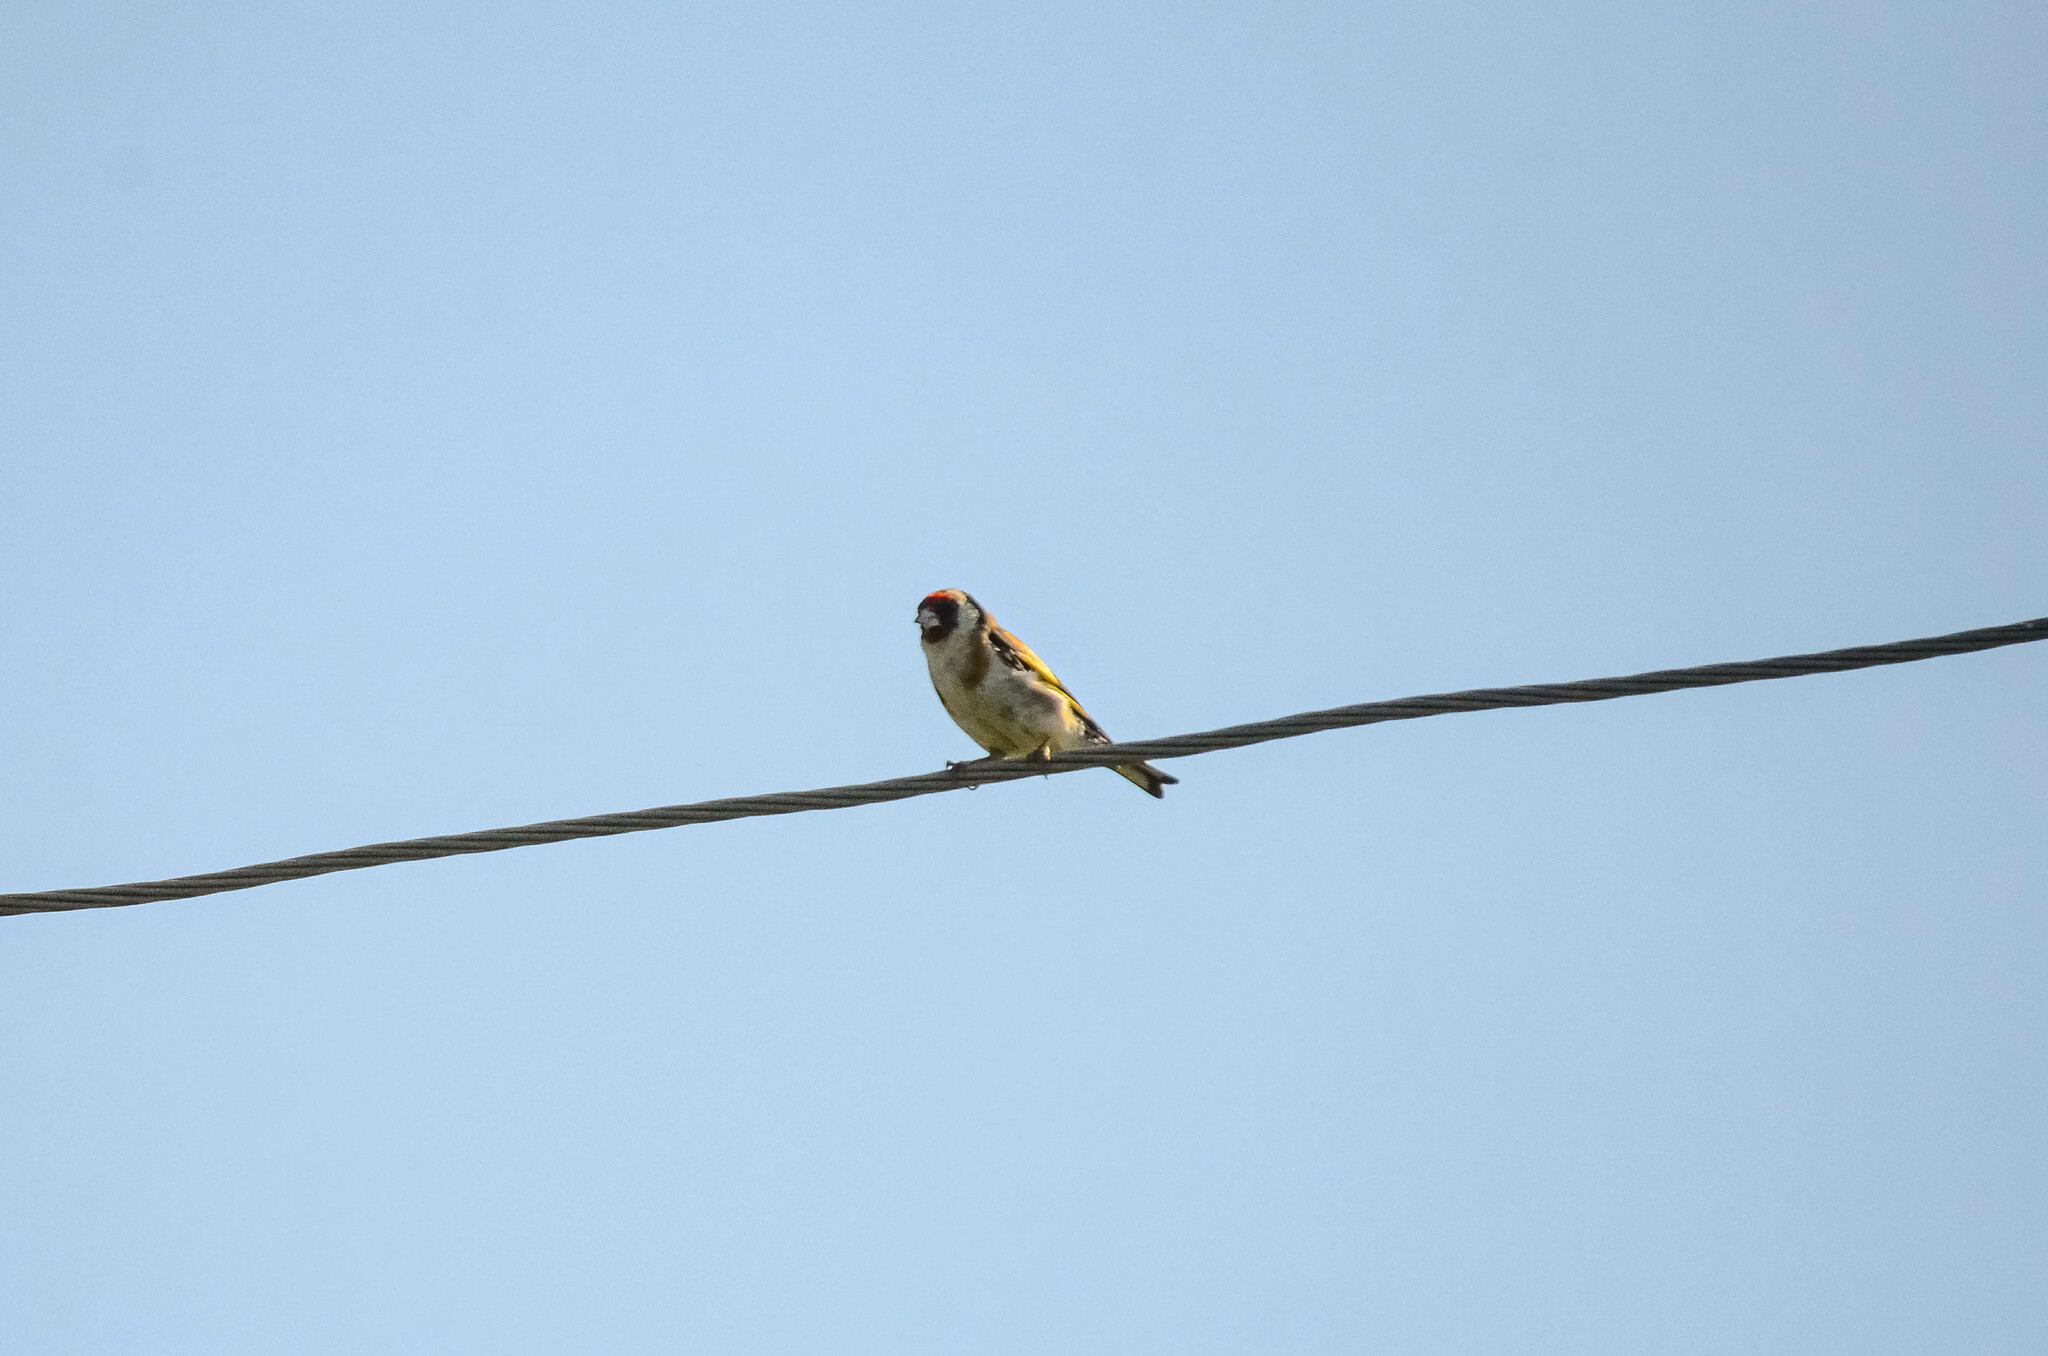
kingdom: Animalia
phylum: Chordata
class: Aves
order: Passeriformes
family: Fringillidae
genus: Carduelis
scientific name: Carduelis carduelis
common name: European goldfinch
